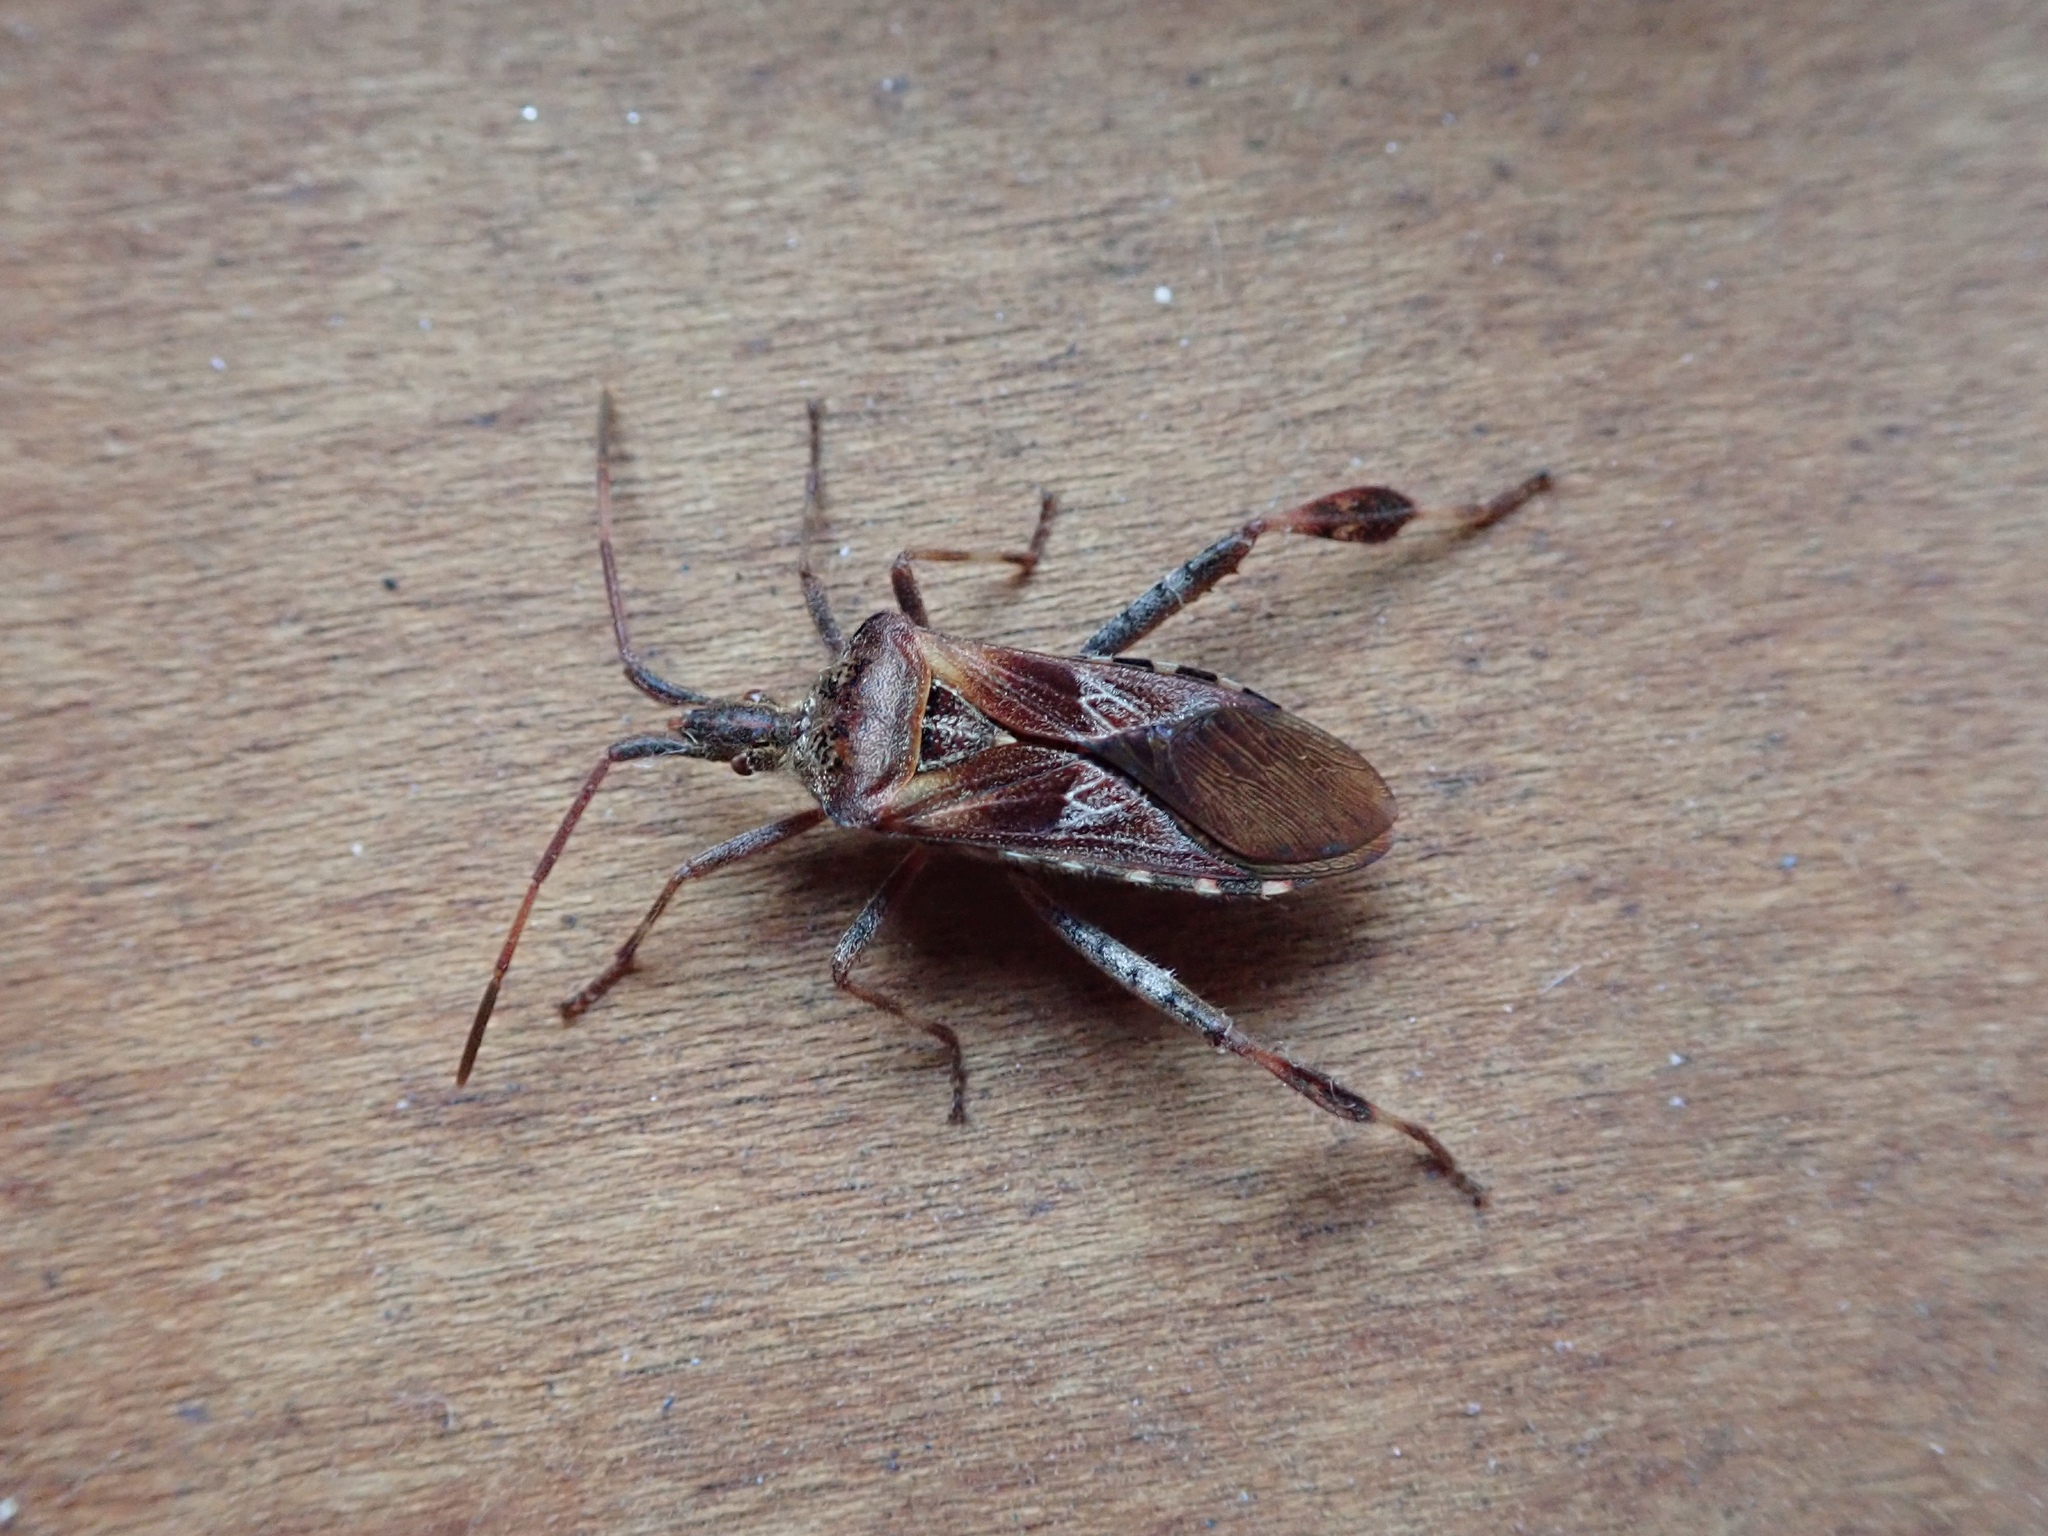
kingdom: Animalia
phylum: Arthropoda
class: Insecta
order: Hemiptera
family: Coreidae
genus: Leptoglossus
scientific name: Leptoglossus occidentalis
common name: Western conifer-seed bug
